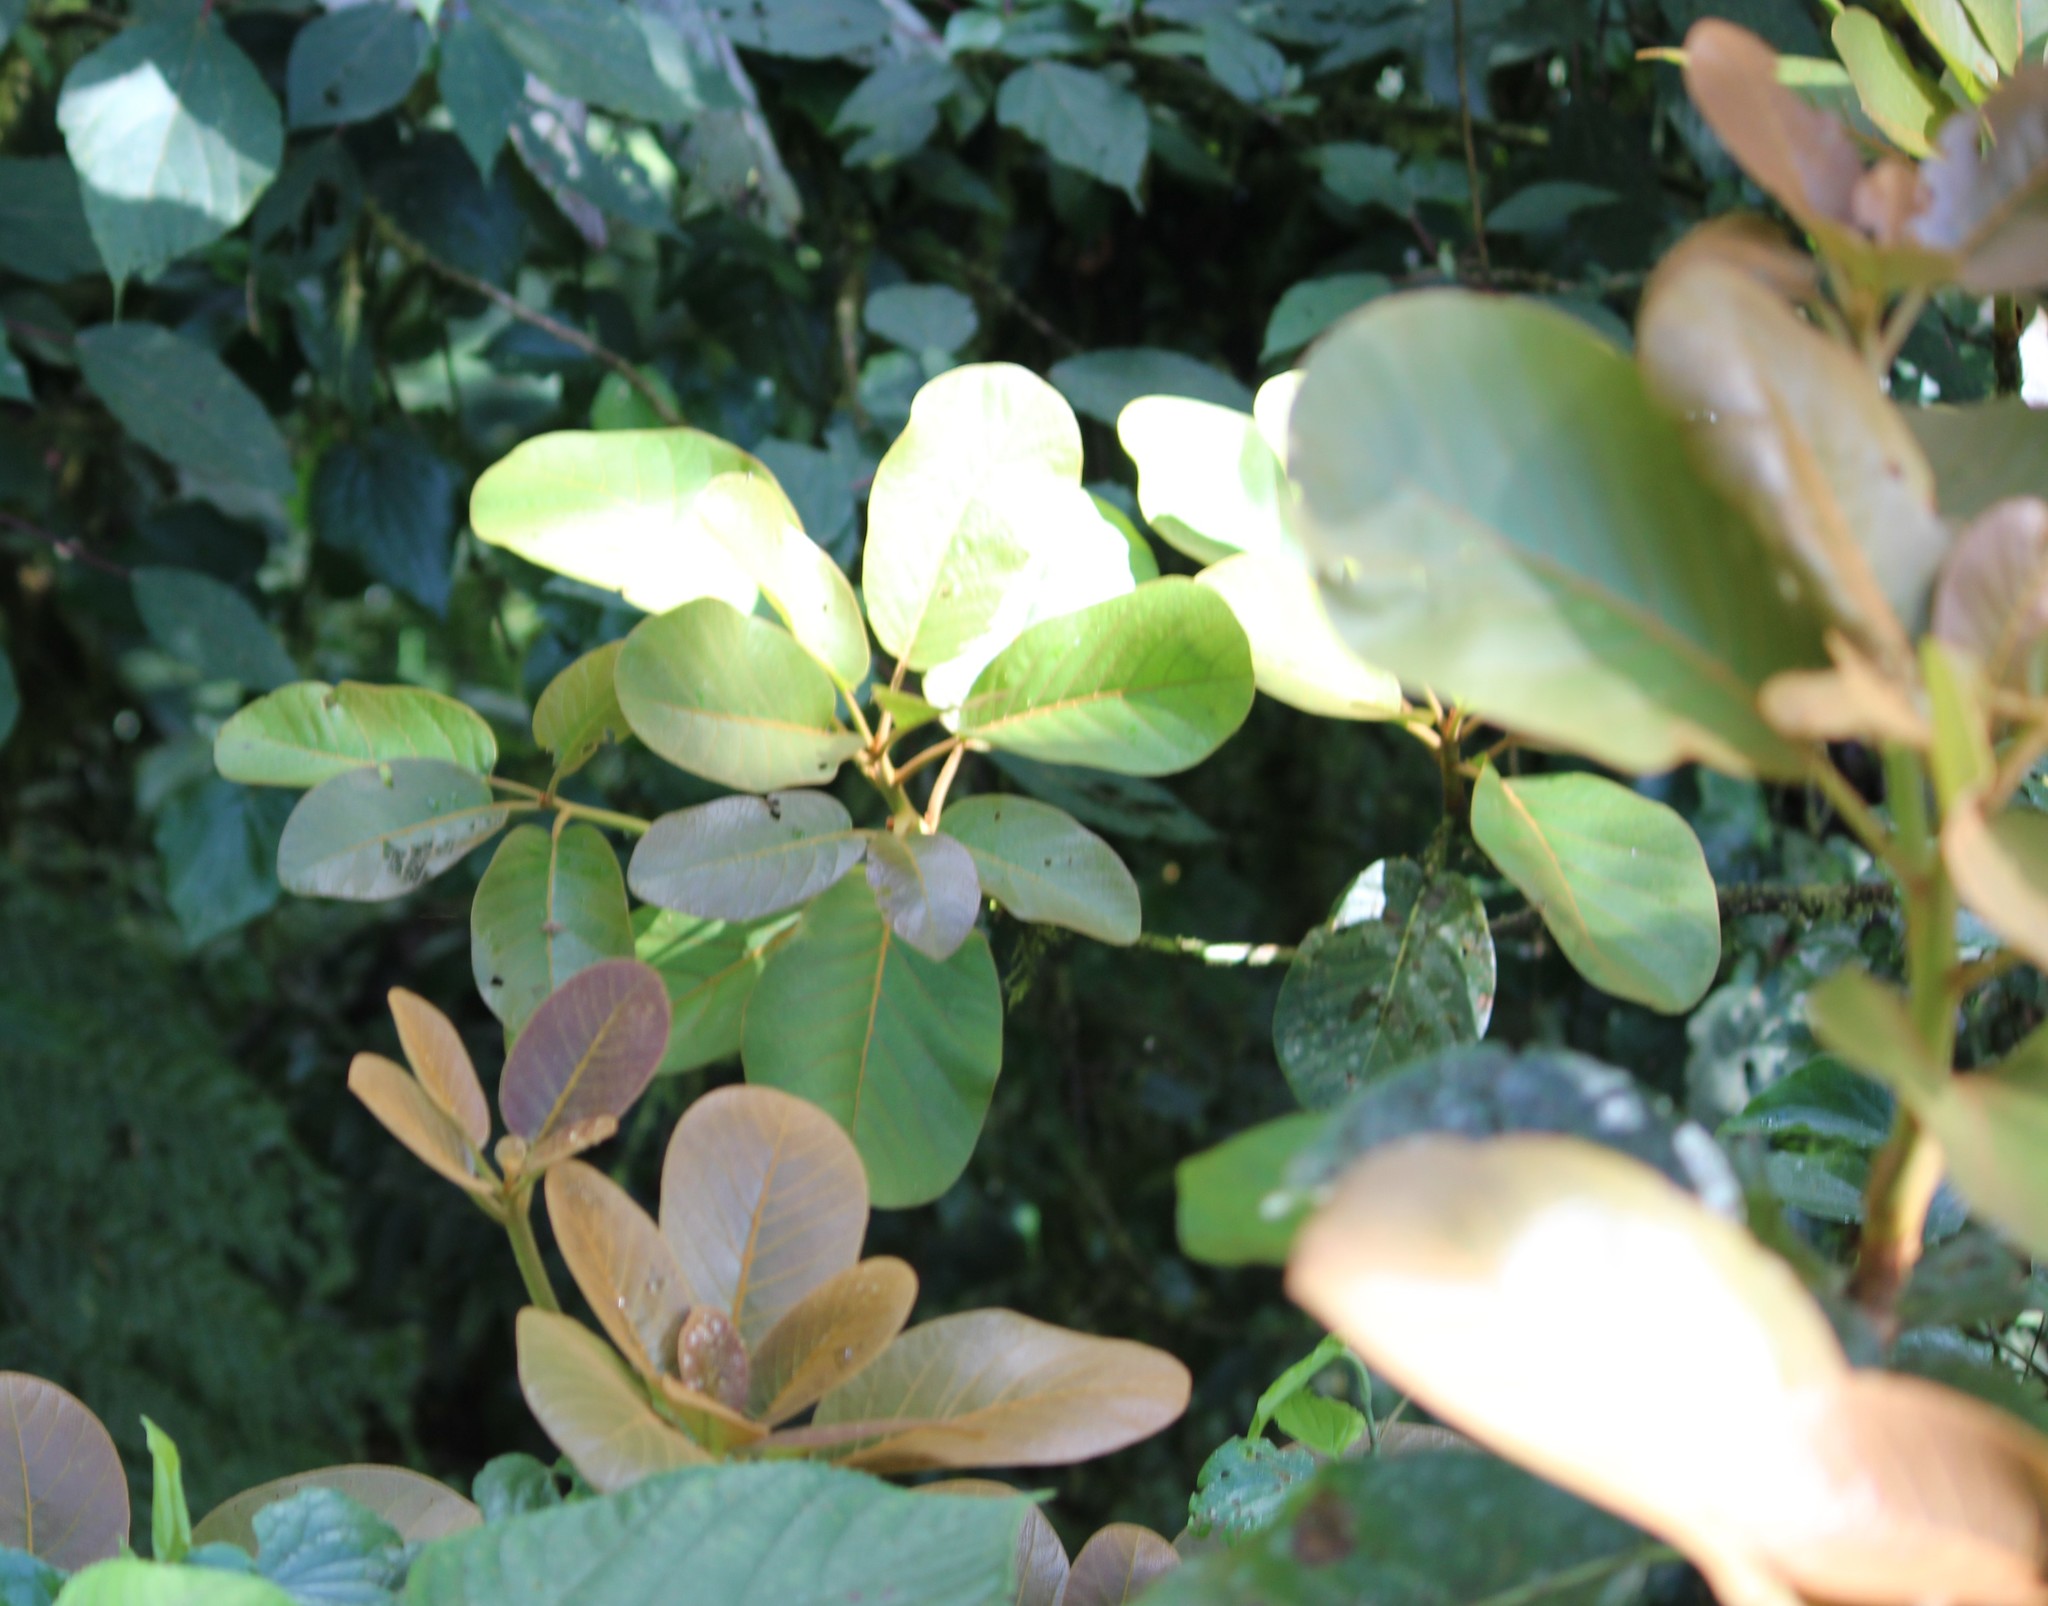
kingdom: Plantae
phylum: Tracheophyta
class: Magnoliopsida
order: Laurales
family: Lauraceae
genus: Persea
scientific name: Persea schiedeana
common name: Coyo avocado
